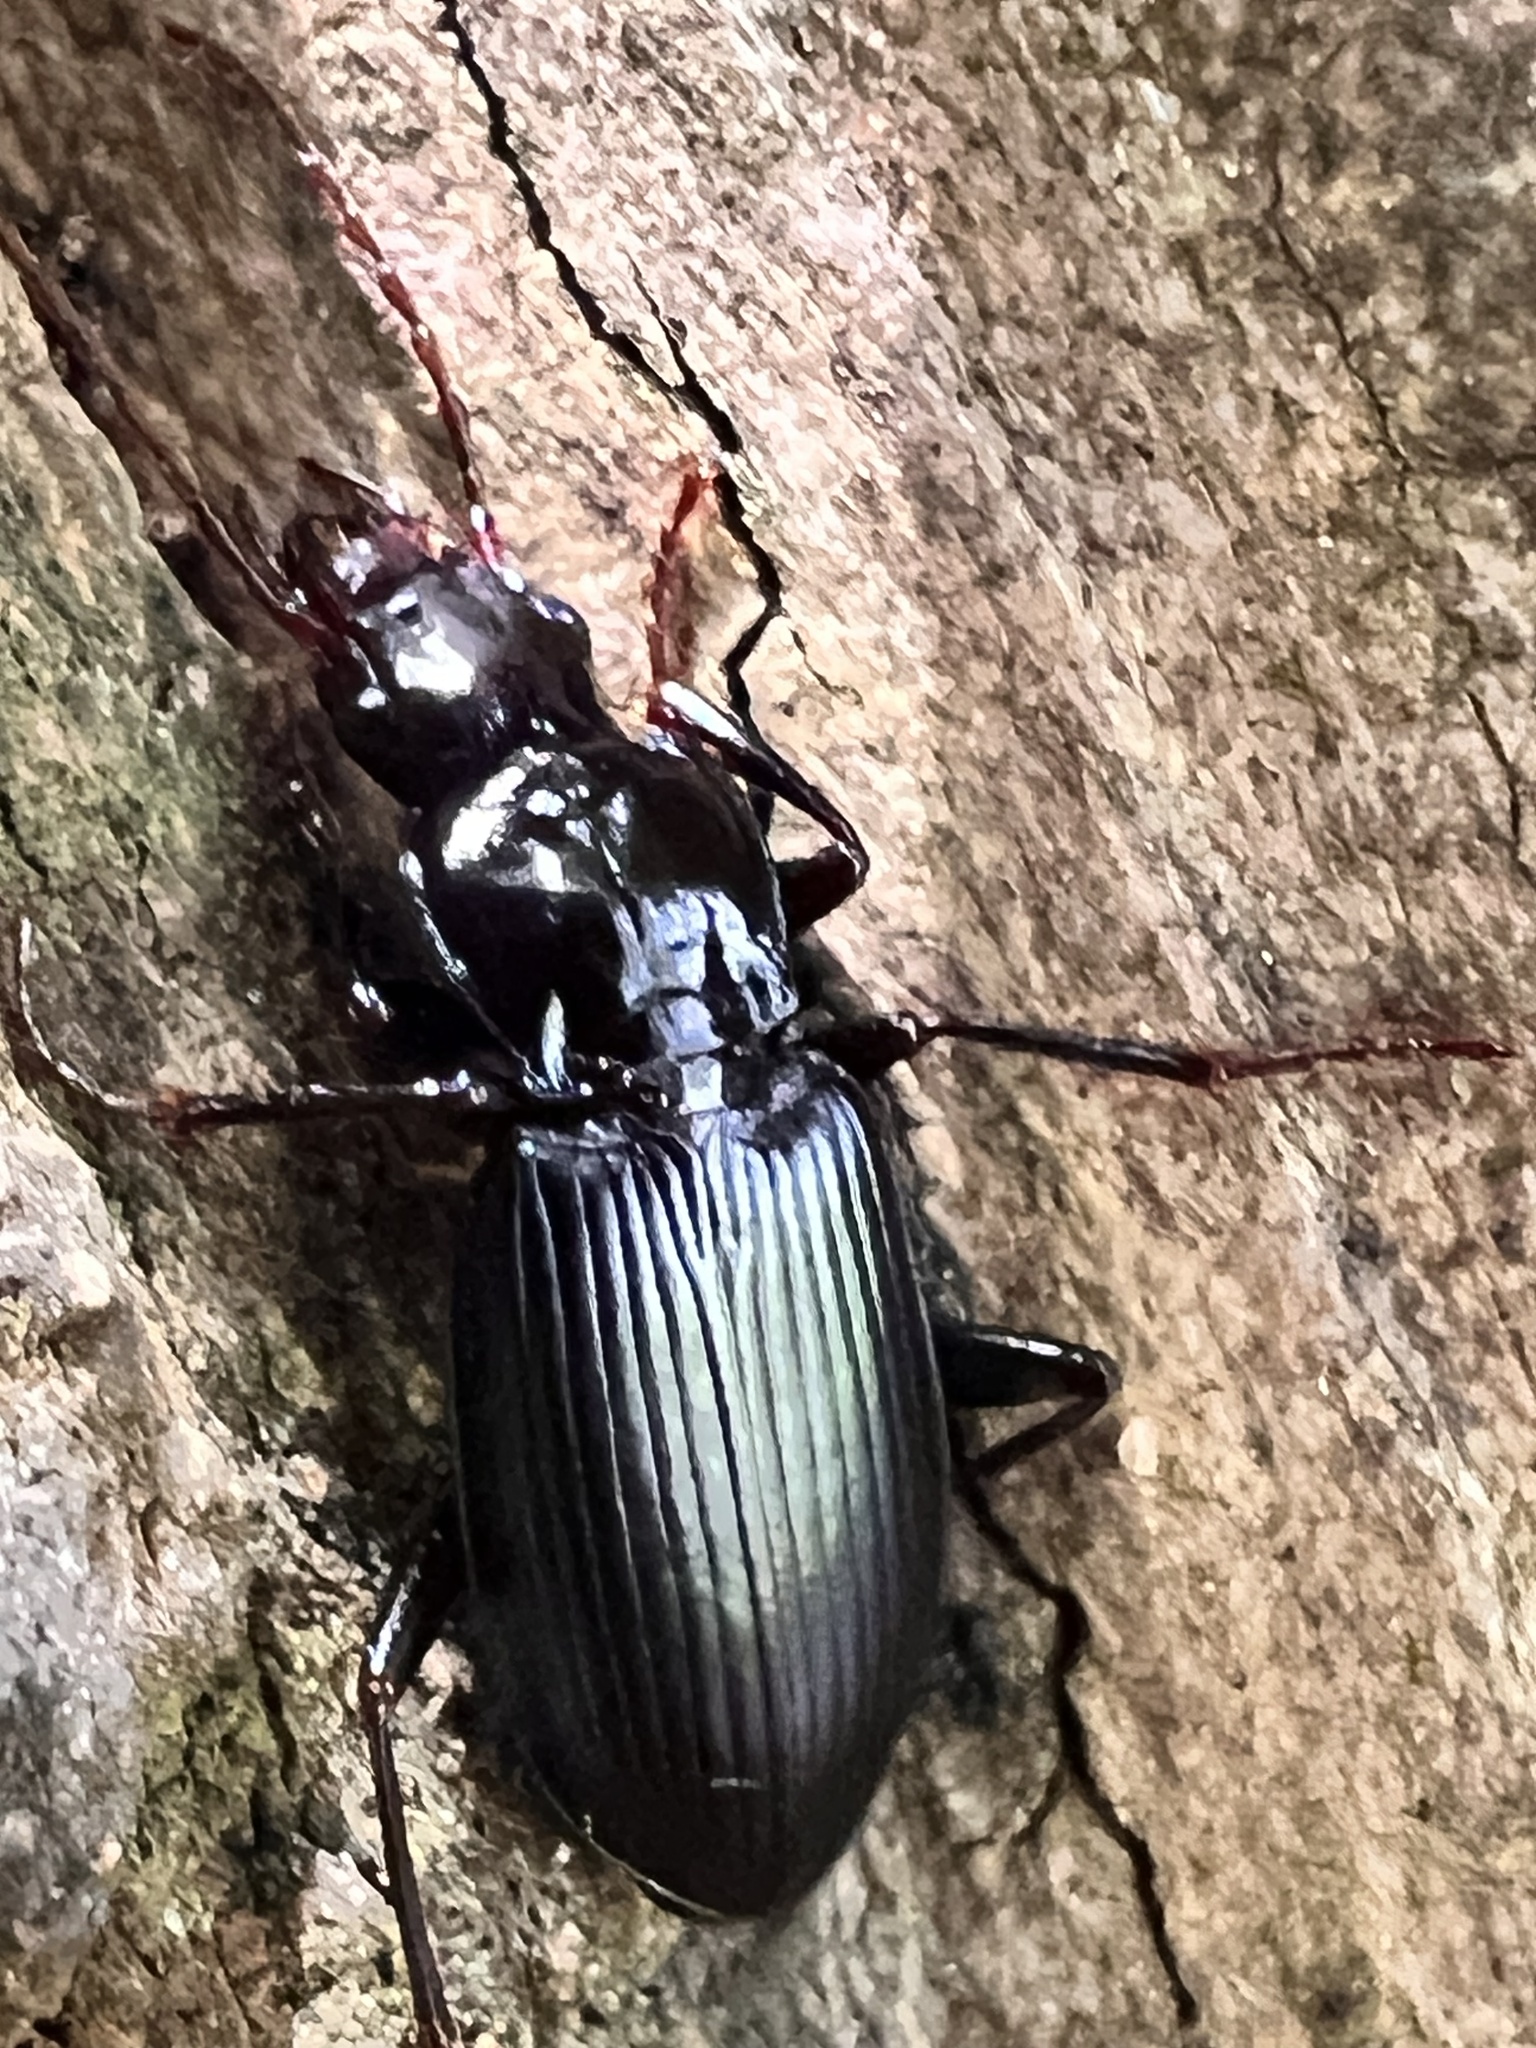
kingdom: Animalia
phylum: Arthropoda
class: Insecta
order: Coleoptera
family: Carabidae
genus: Laemostenus
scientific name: Laemostenus complanatus
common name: Cosmopolitan ground beetle
